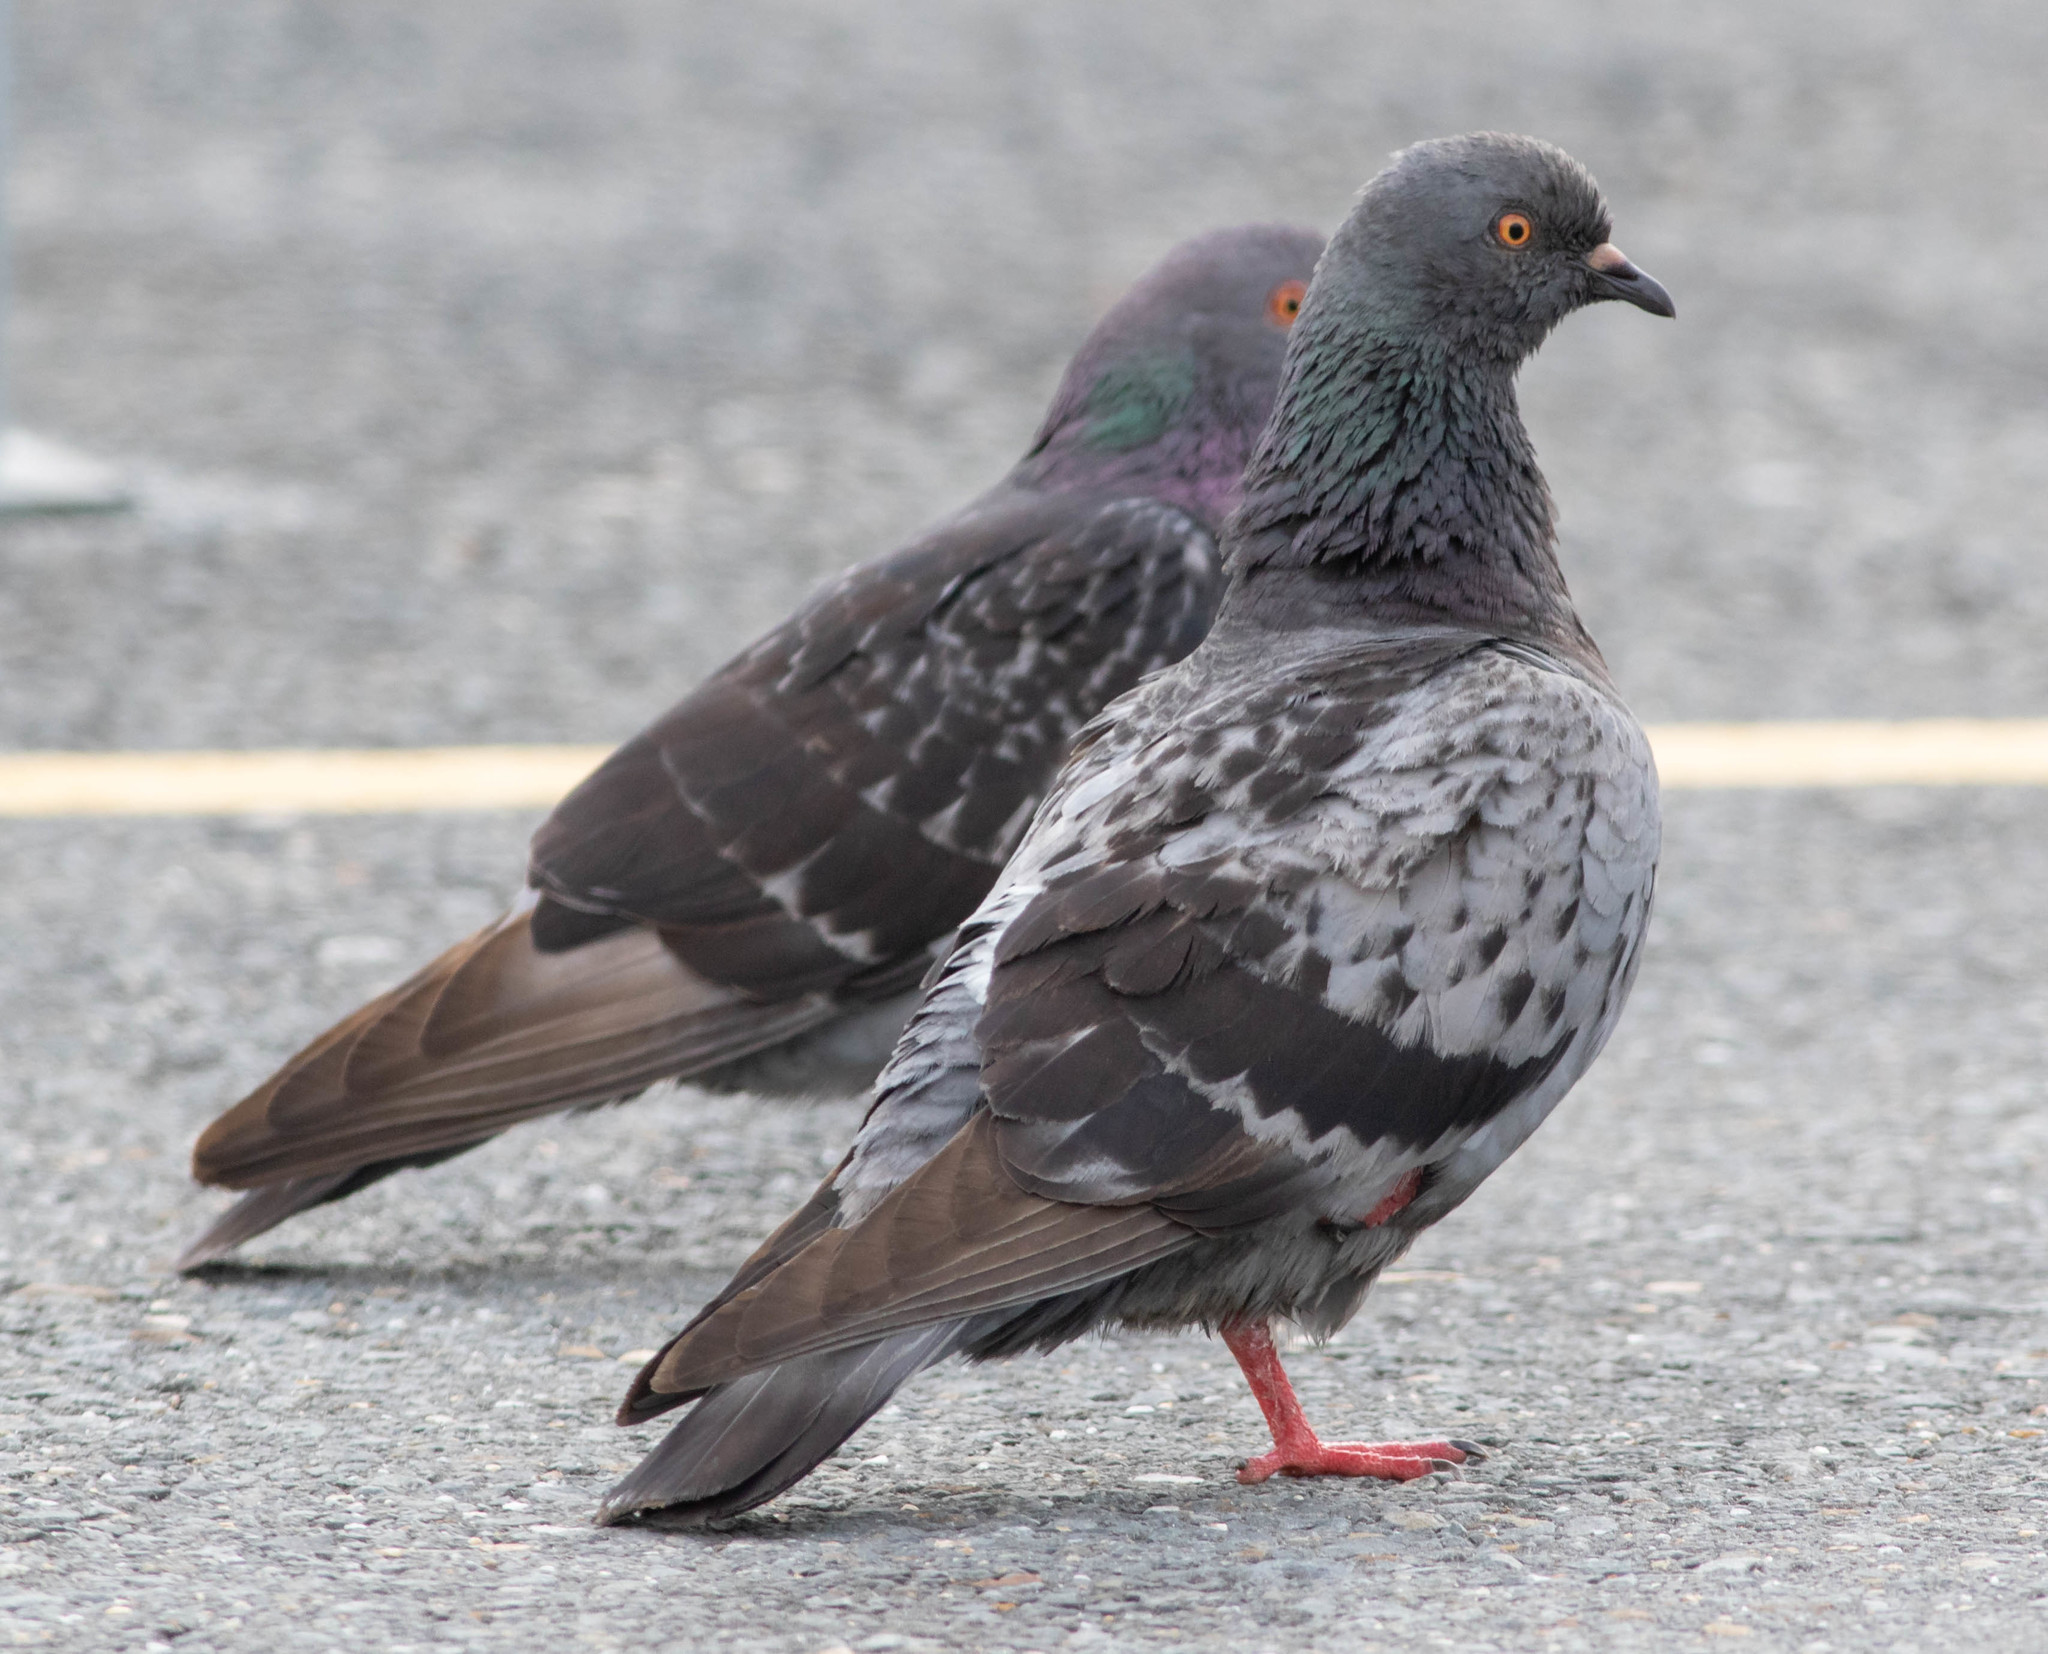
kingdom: Animalia
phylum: Chordata
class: Aves
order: Columbiformes
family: Columbidae
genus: Columba
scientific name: Columba livia
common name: Rock pigeon
